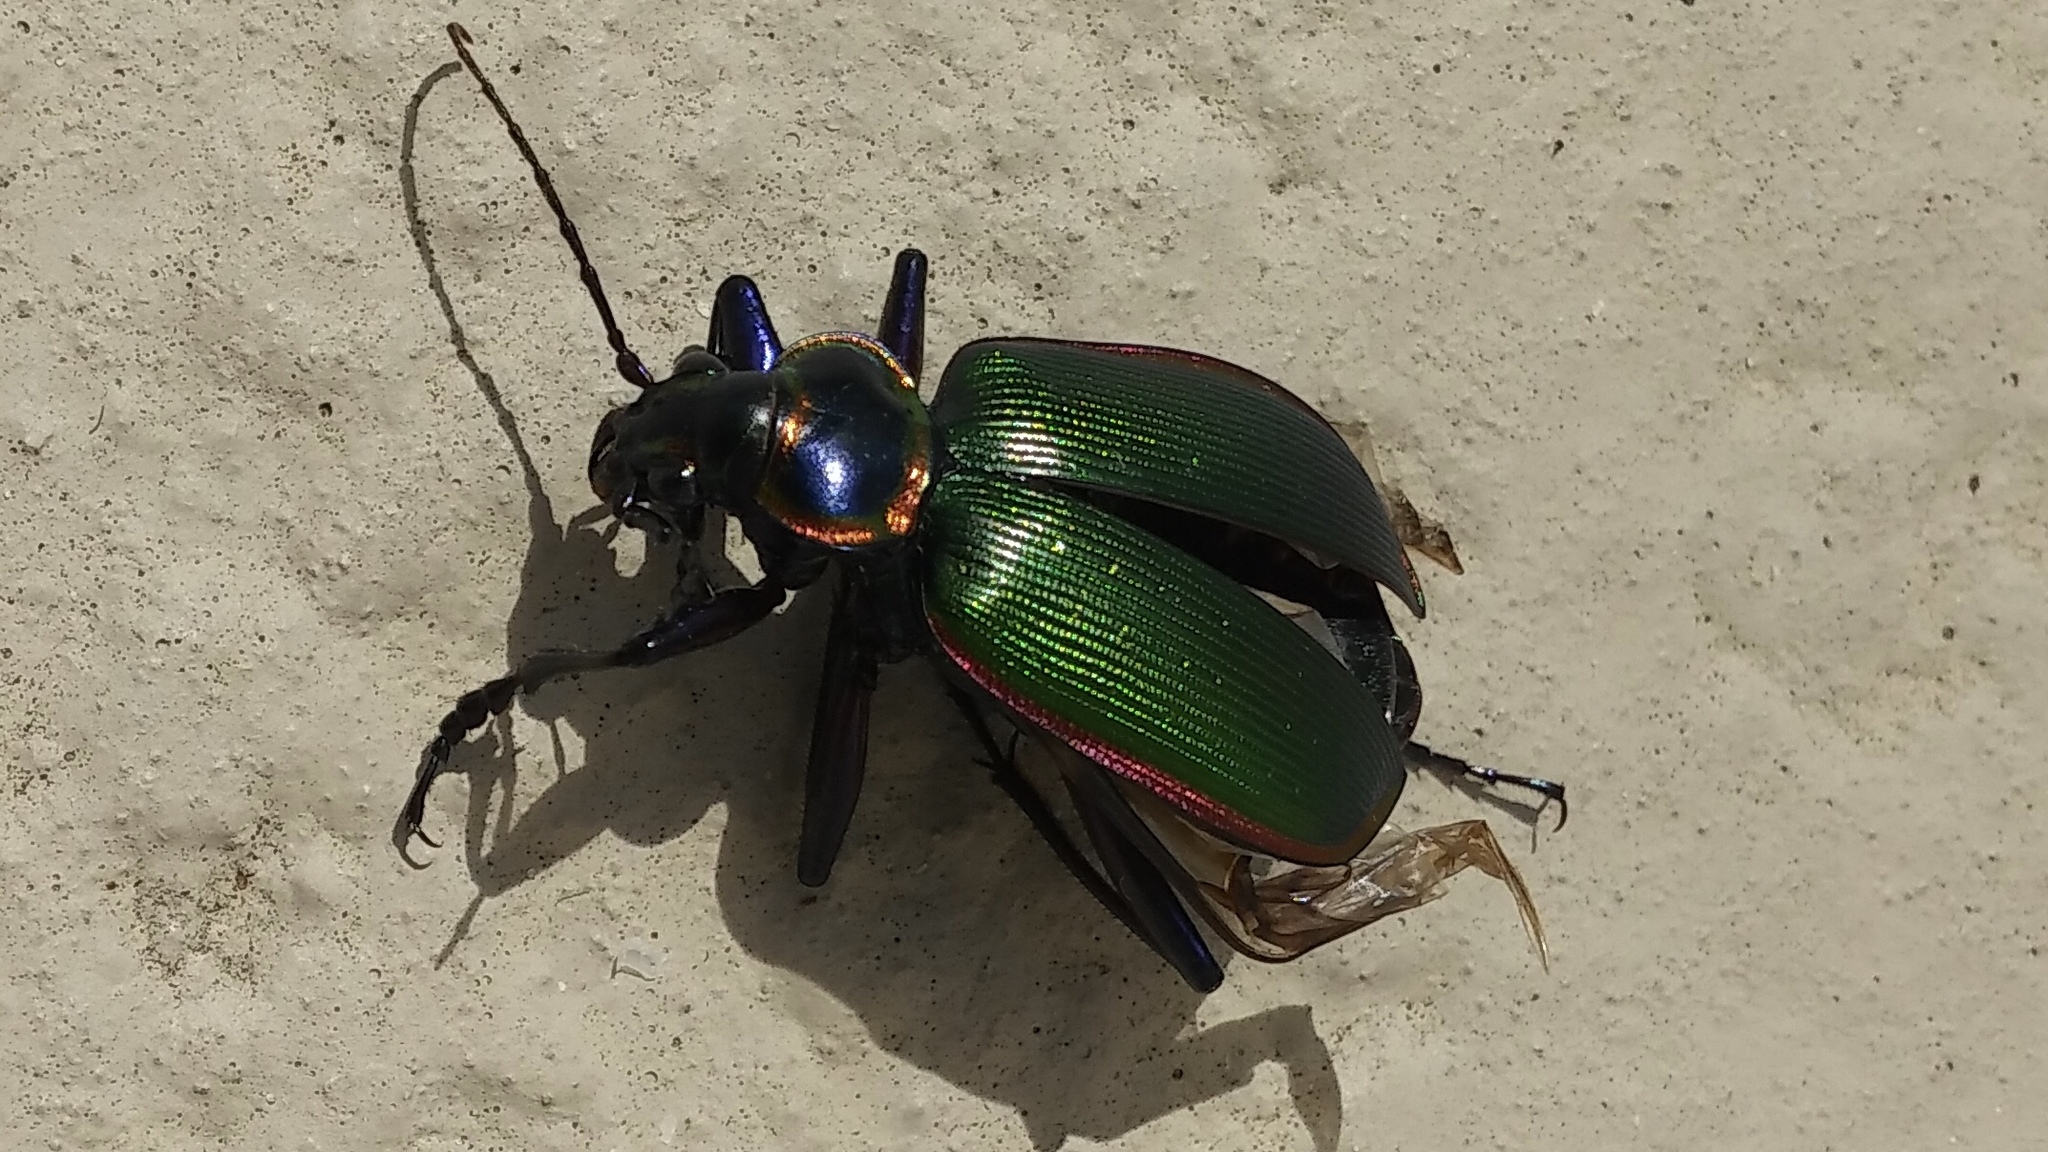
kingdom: Animalia
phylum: Arthropoda
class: Insecta
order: Coleoptera
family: Carabidae
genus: Calosoma
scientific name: Calosoma scrutator
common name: Fiery searcher beetle
